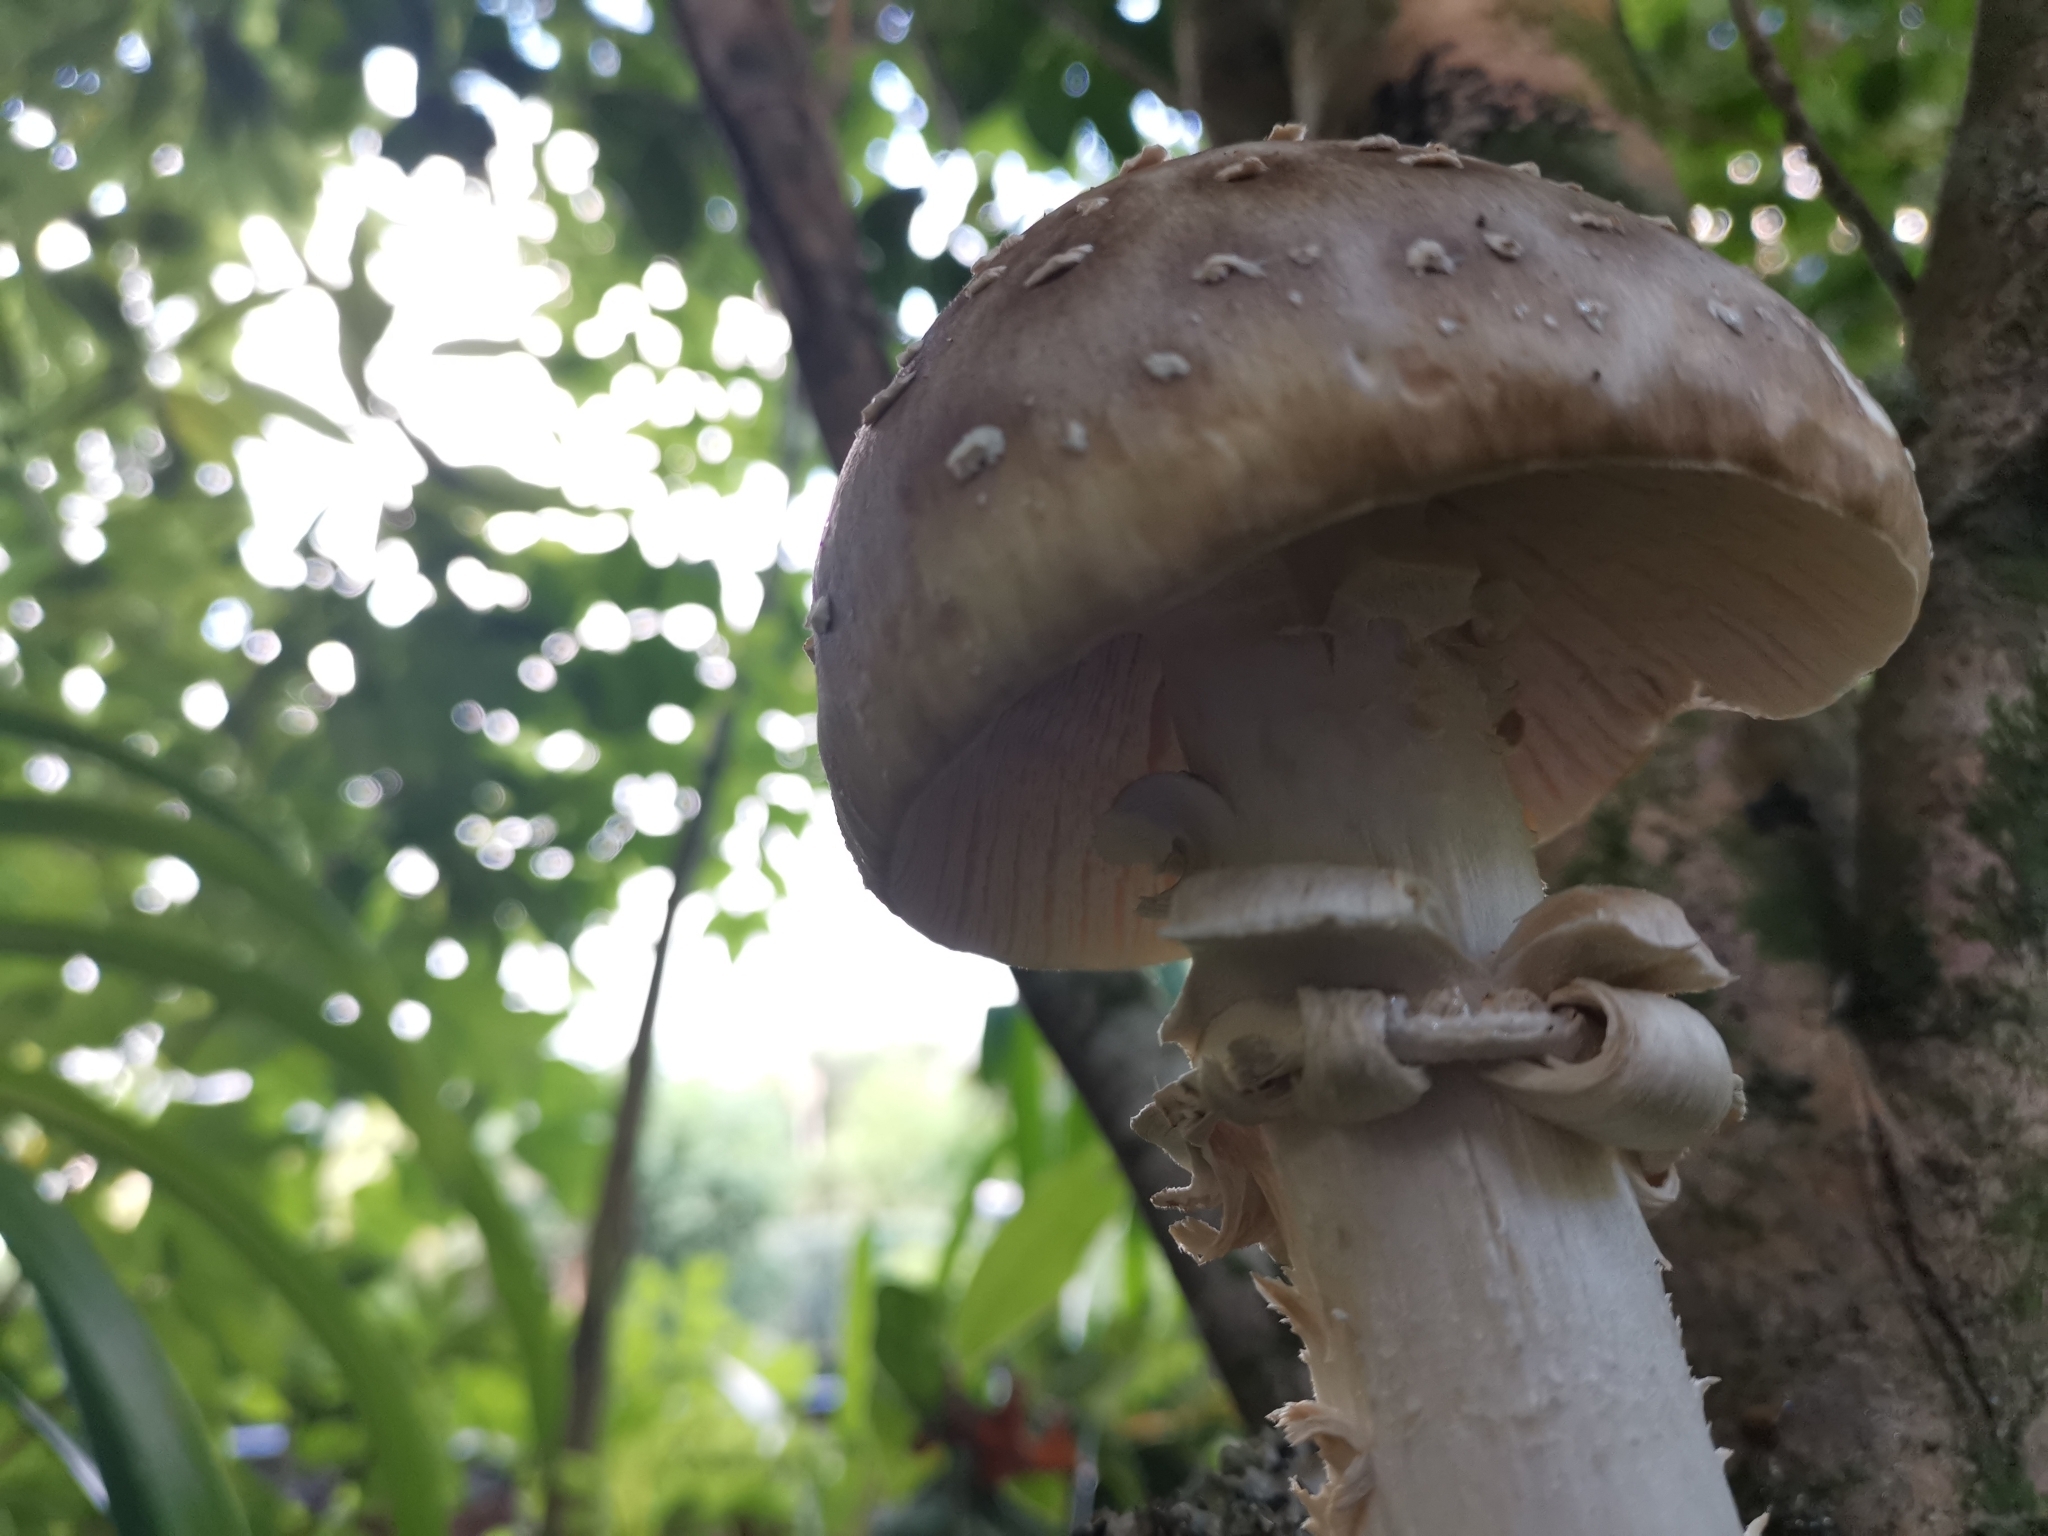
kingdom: Fungi
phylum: Basidiomycota
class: Agaricomycetes
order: Agaricales
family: Amanitaceae
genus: Amanita
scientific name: Amanita pantherina
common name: Panthercap
